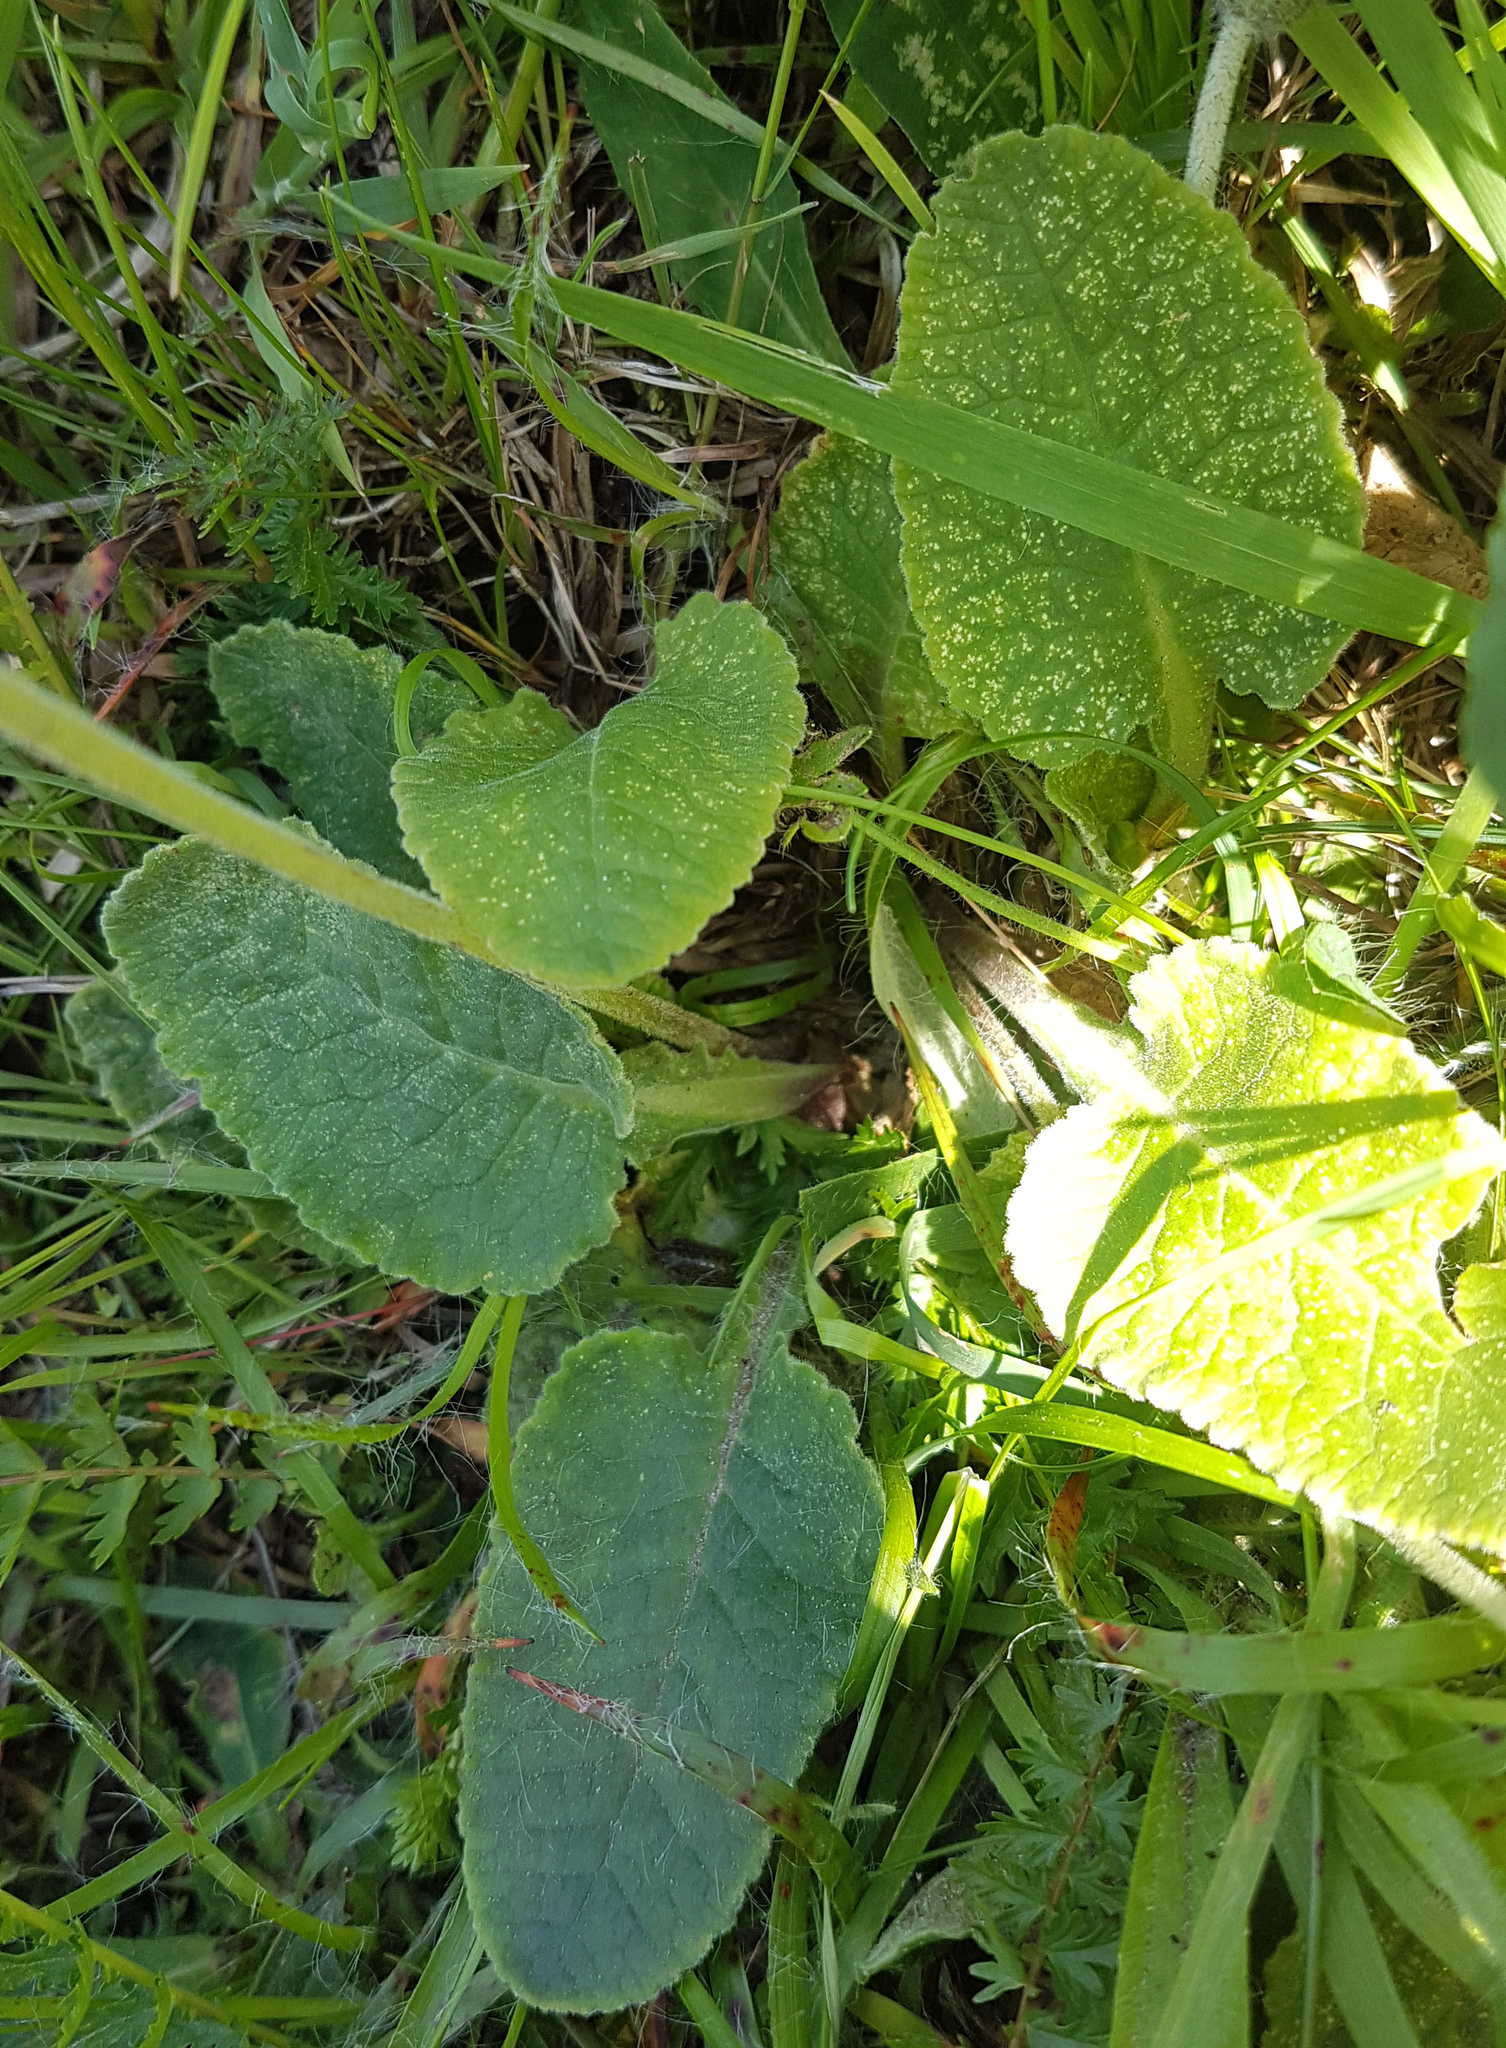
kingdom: Plantae
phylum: Tracheophyta
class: Magnoliopsida
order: Ericales
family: Primulaceae
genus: Primula
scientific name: Primula veris
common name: Cowslip
